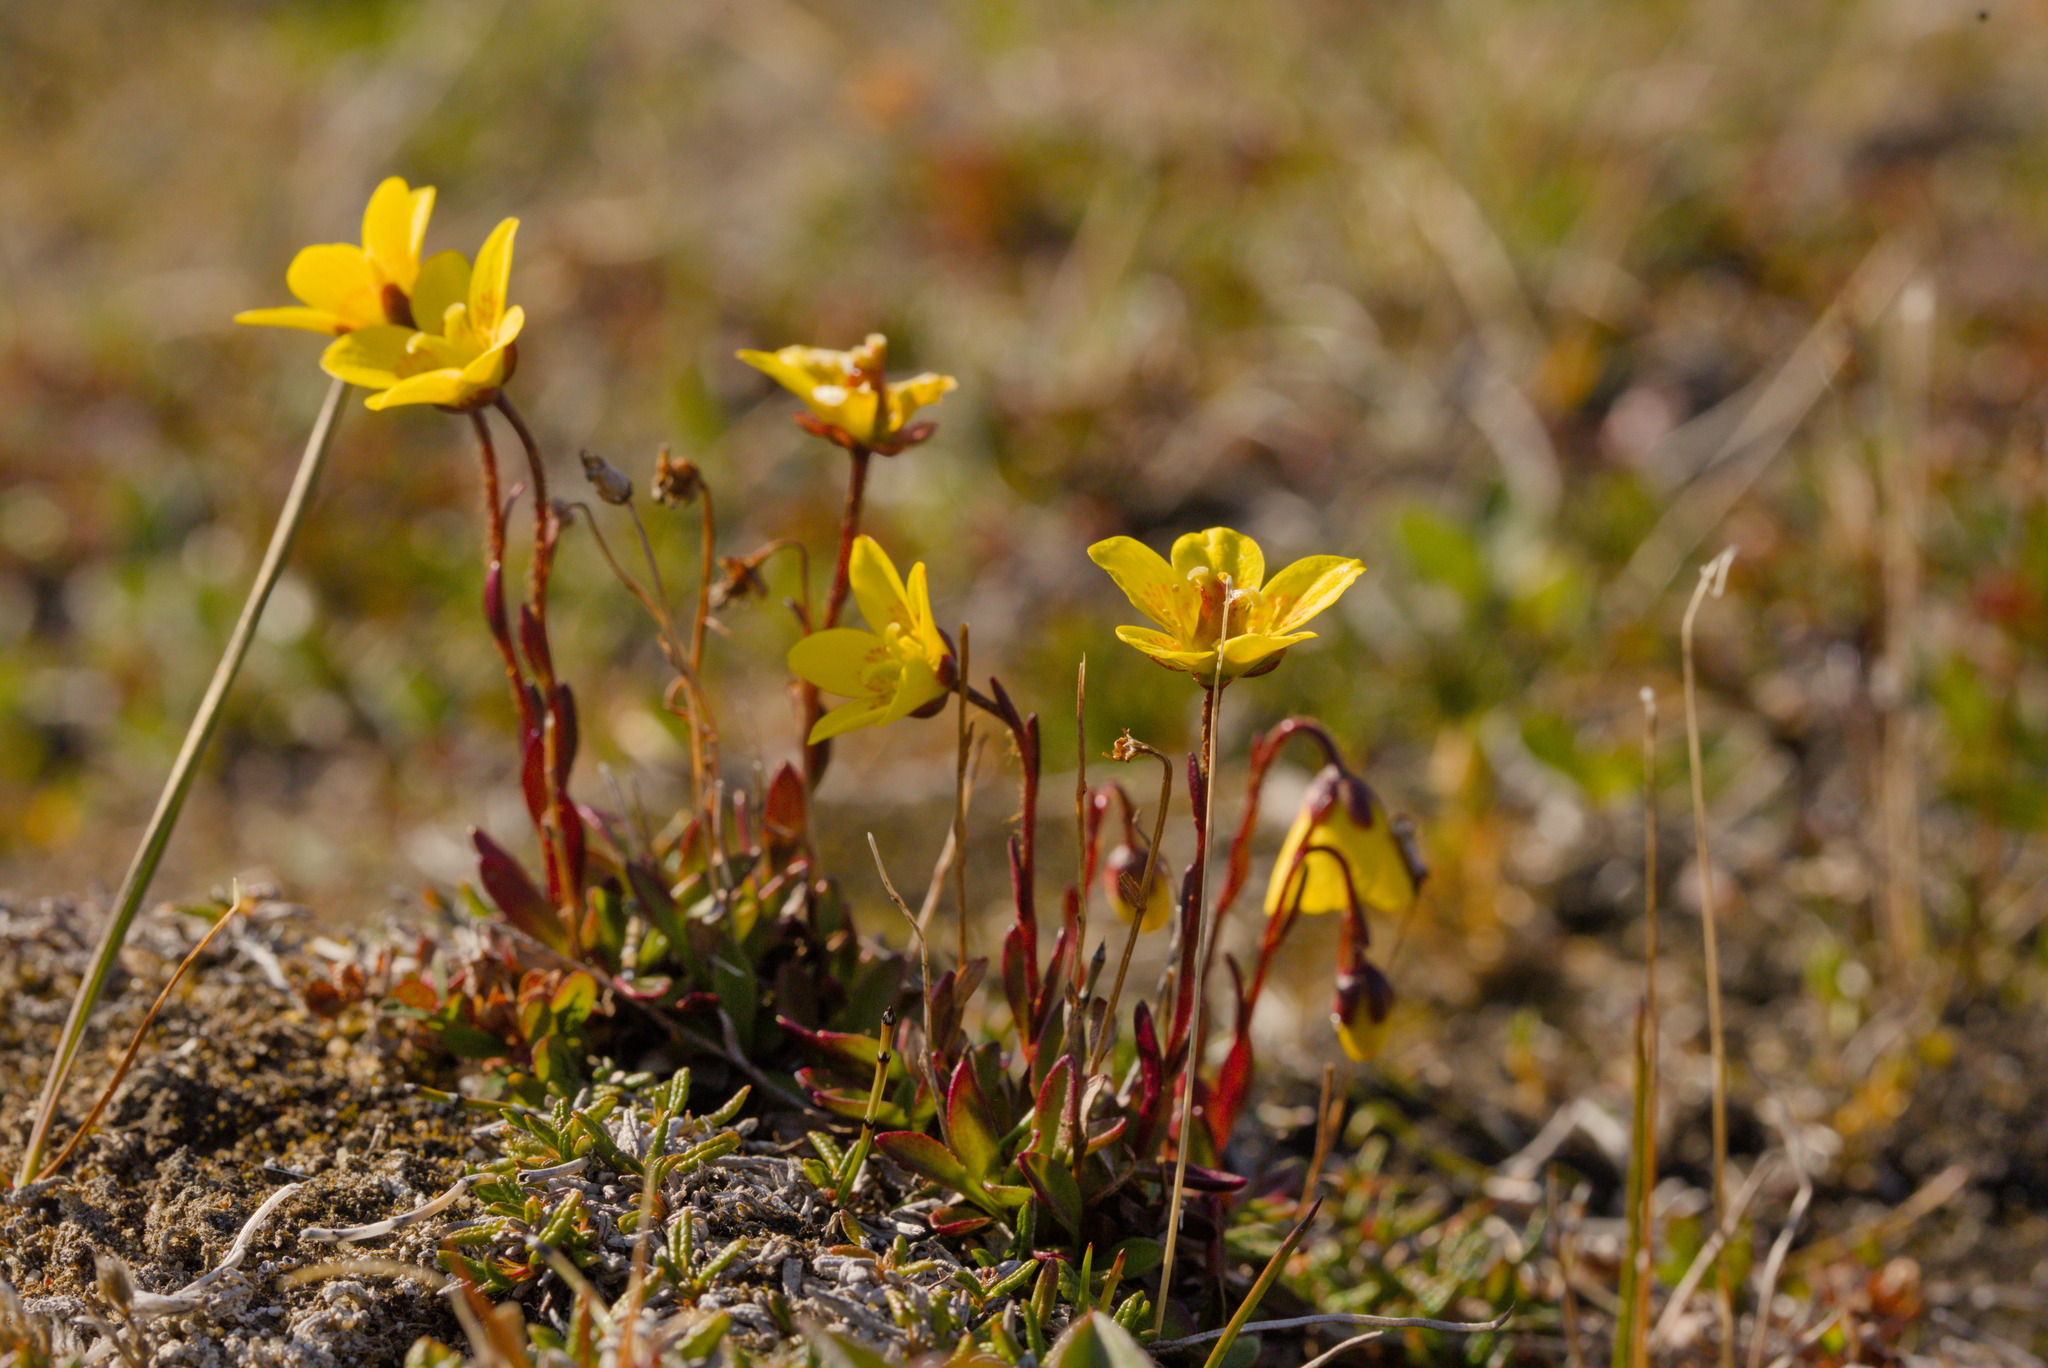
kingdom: Plantae
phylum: Tracheophyta
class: Magnoliopsida
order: Saxifragales
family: Saxifragaceae
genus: Saxifraga
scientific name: Saxifraga hirculus
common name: Yellow marsh saxifrage
